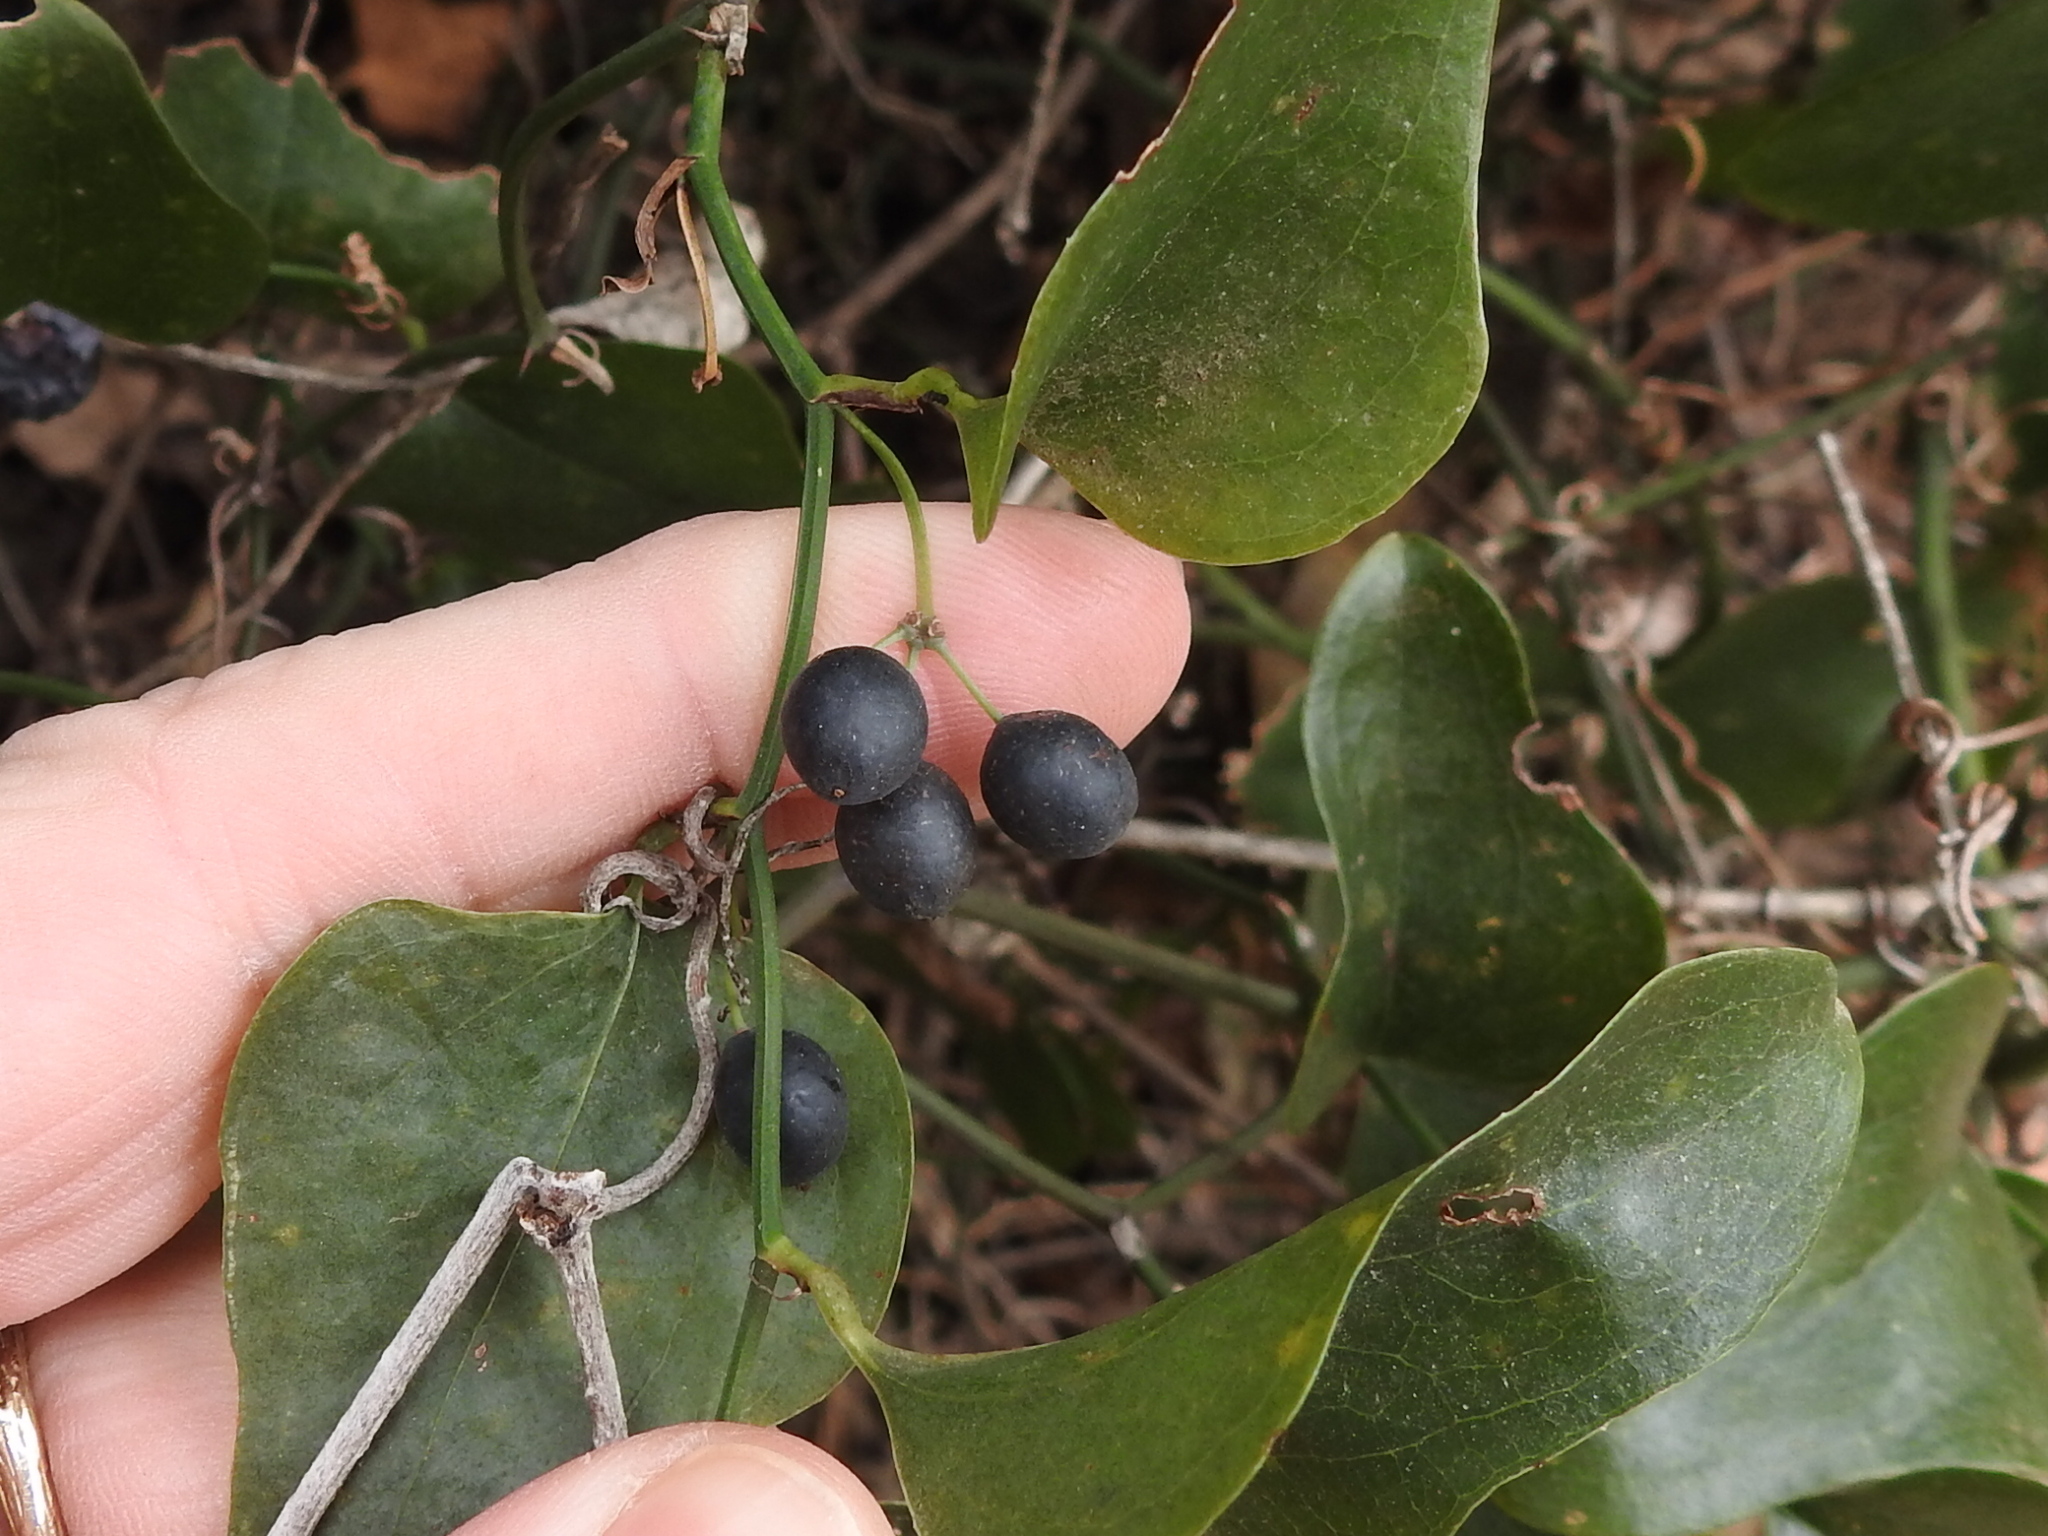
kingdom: Plantae
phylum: Tracheophyta
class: Liliopsida
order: Liliales
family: Smilacaceae
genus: Smilax
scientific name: Smilax bona-nox
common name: Catbrier
